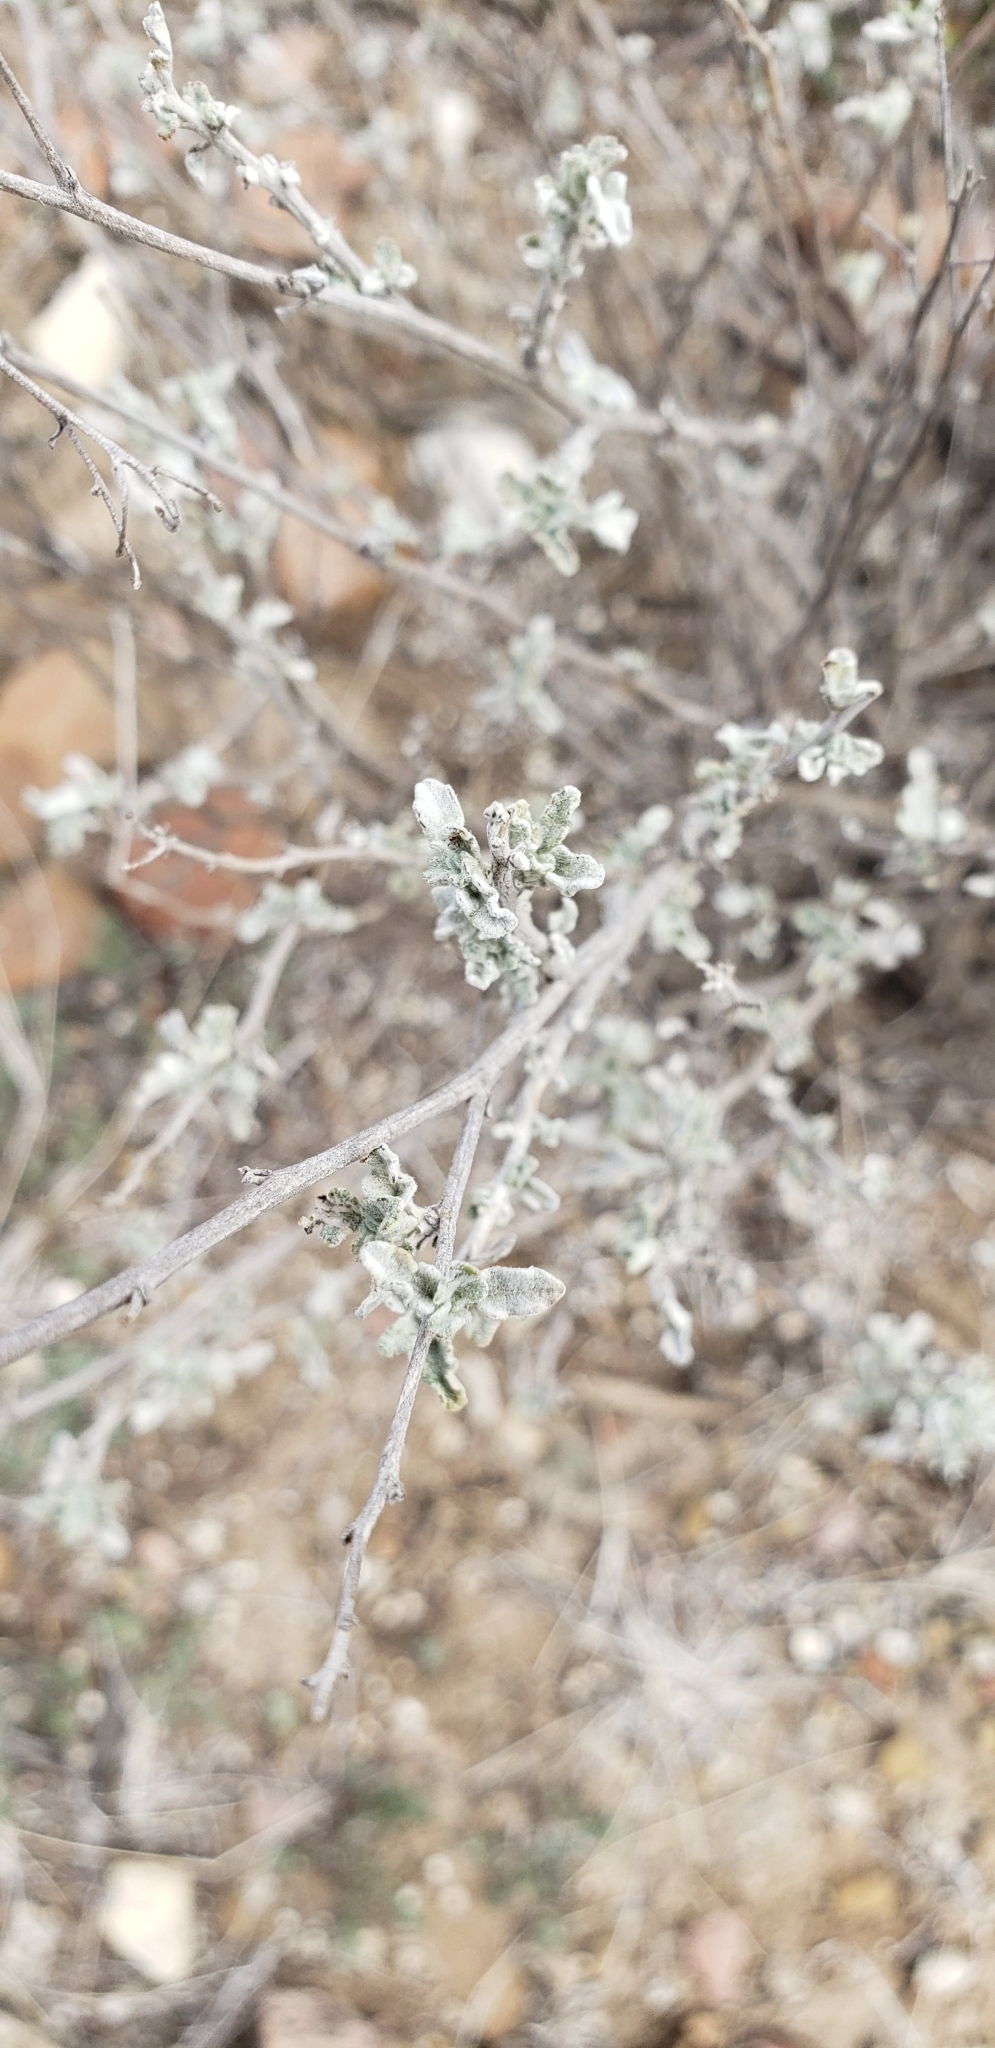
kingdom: Plantae
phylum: Tracheophyta
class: Magnoliopsida
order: Asterales
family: Asteraceae
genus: Parthenium
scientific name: Parthenium incanum
